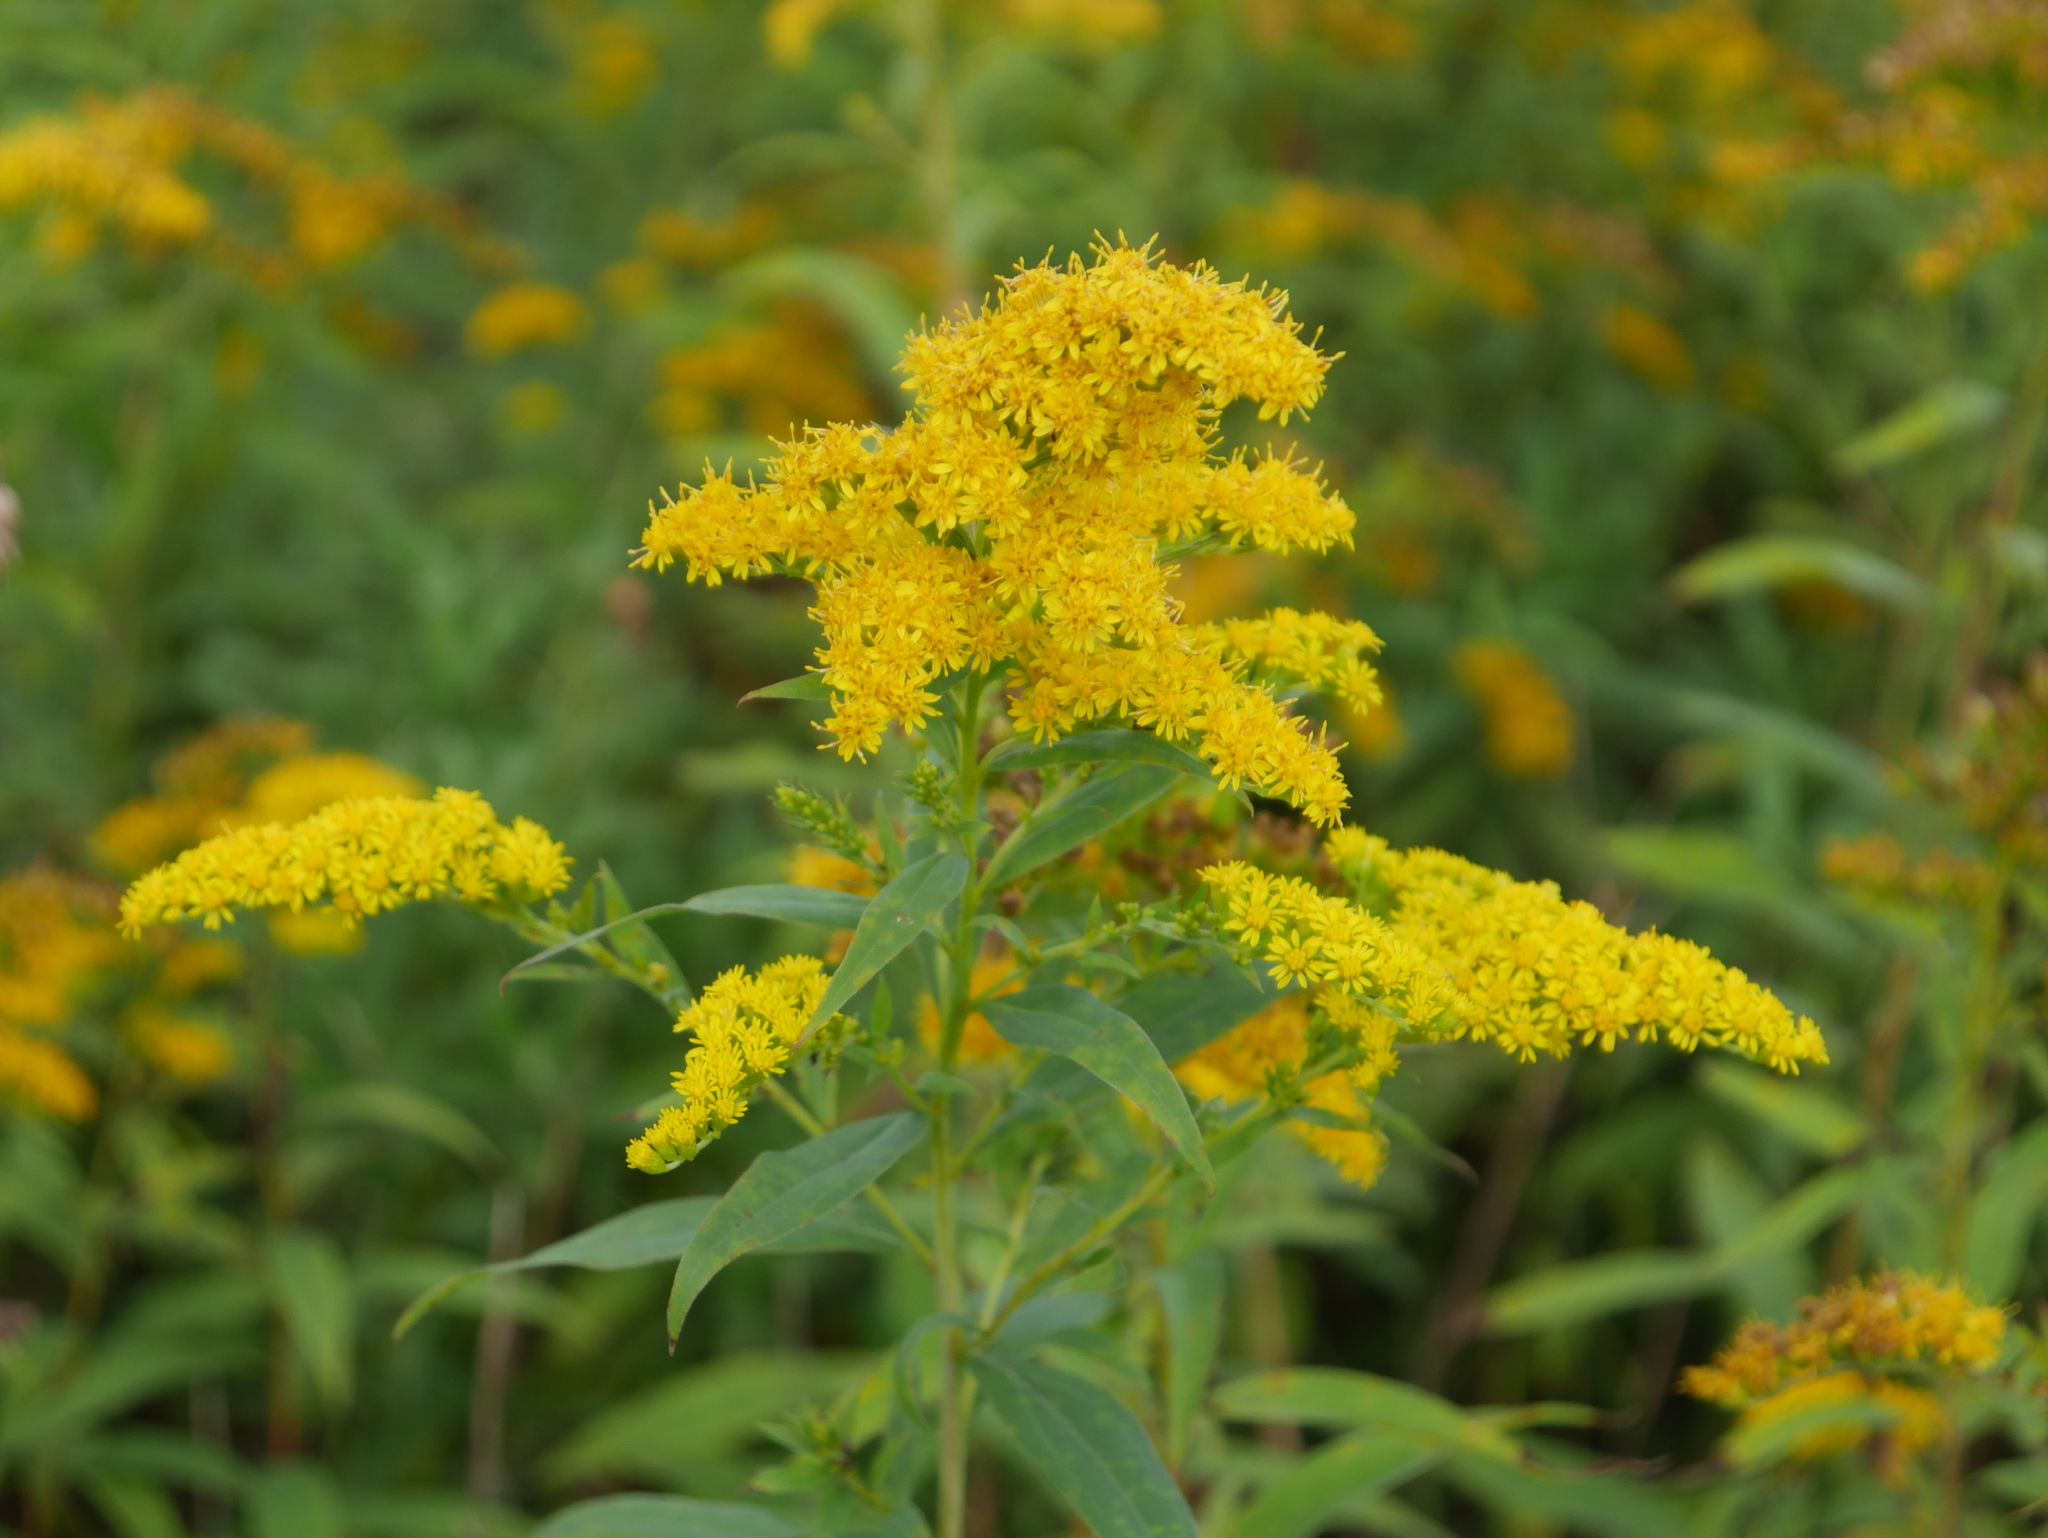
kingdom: Plantae
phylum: Tracheophyta
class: Magnoliopsida
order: Asterales
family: Asteraceae
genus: Solidago
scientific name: Solidago gigantea
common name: Giant goldenrod
